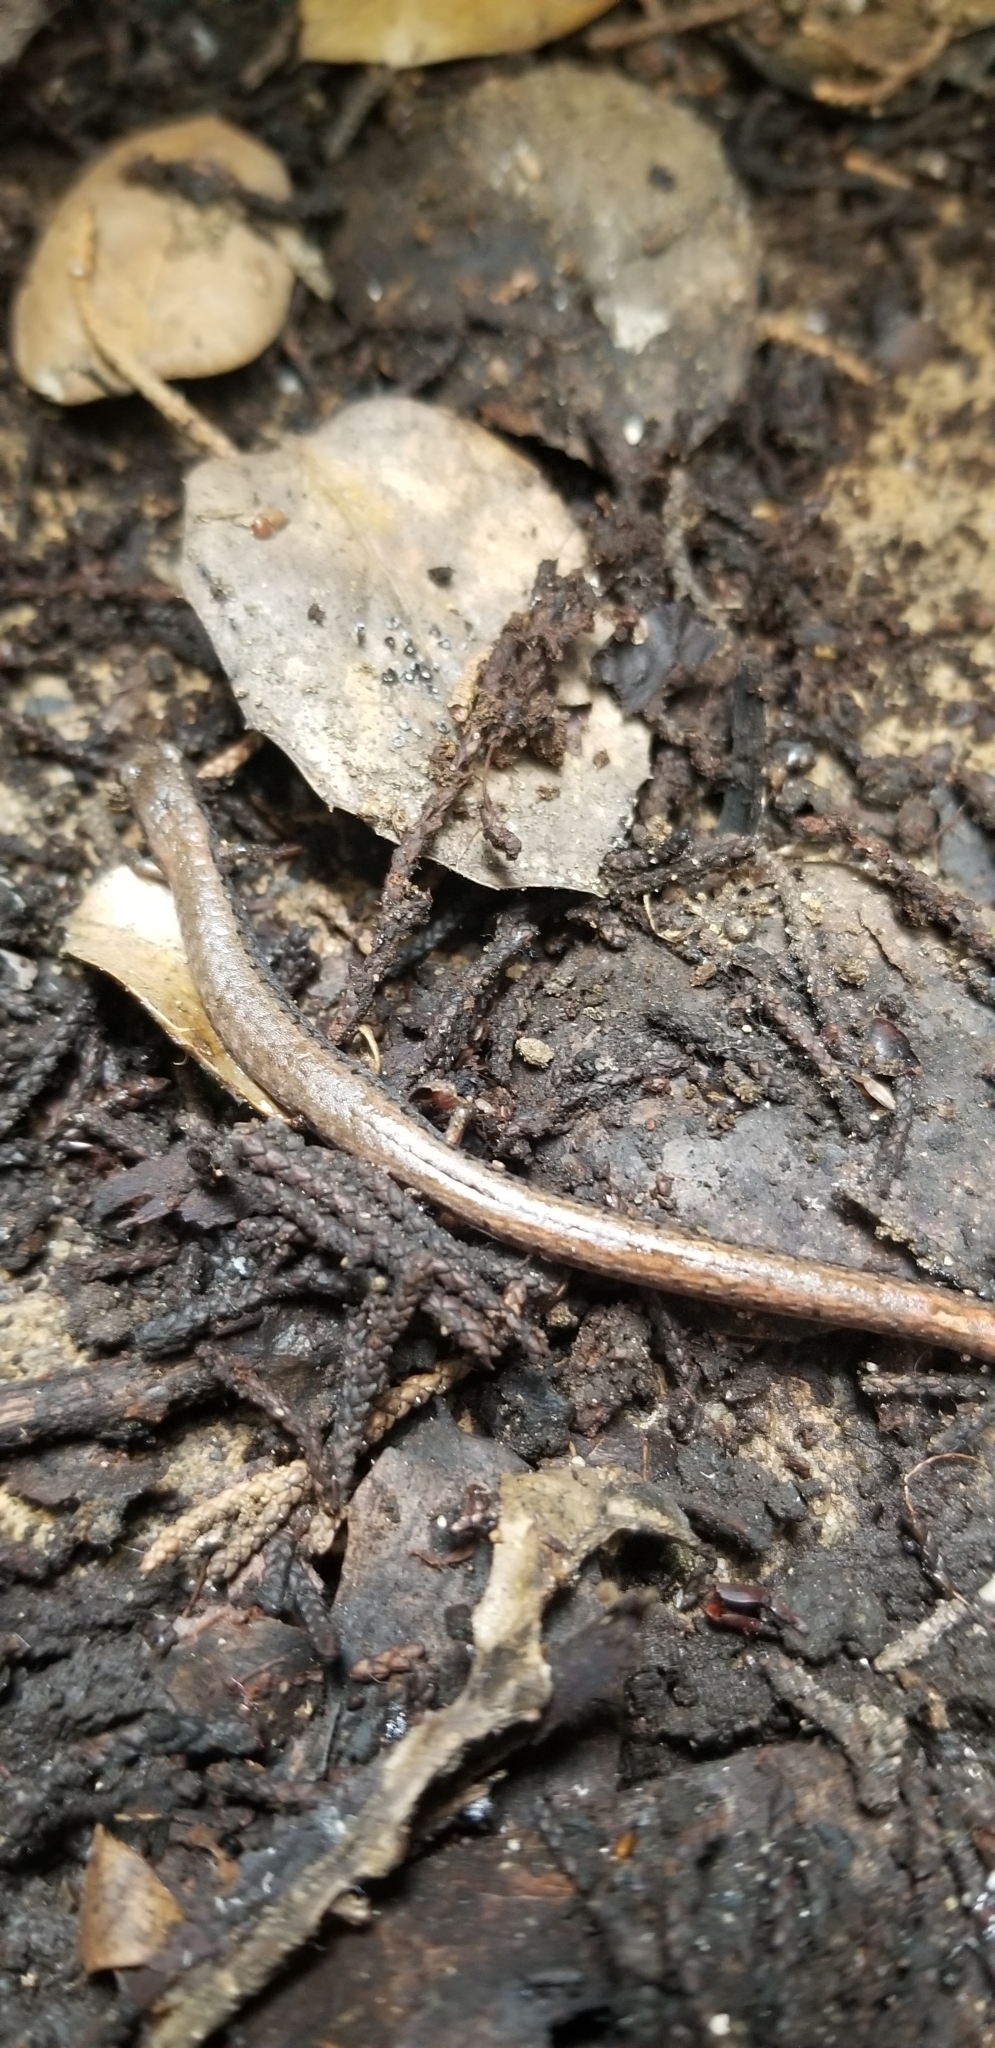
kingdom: Animalia
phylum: Chordata
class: Amphibia
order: Caudata
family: Plethodontidae
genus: Batrachoseps
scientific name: Batrachoseps attenuatus
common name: California slender salamander
